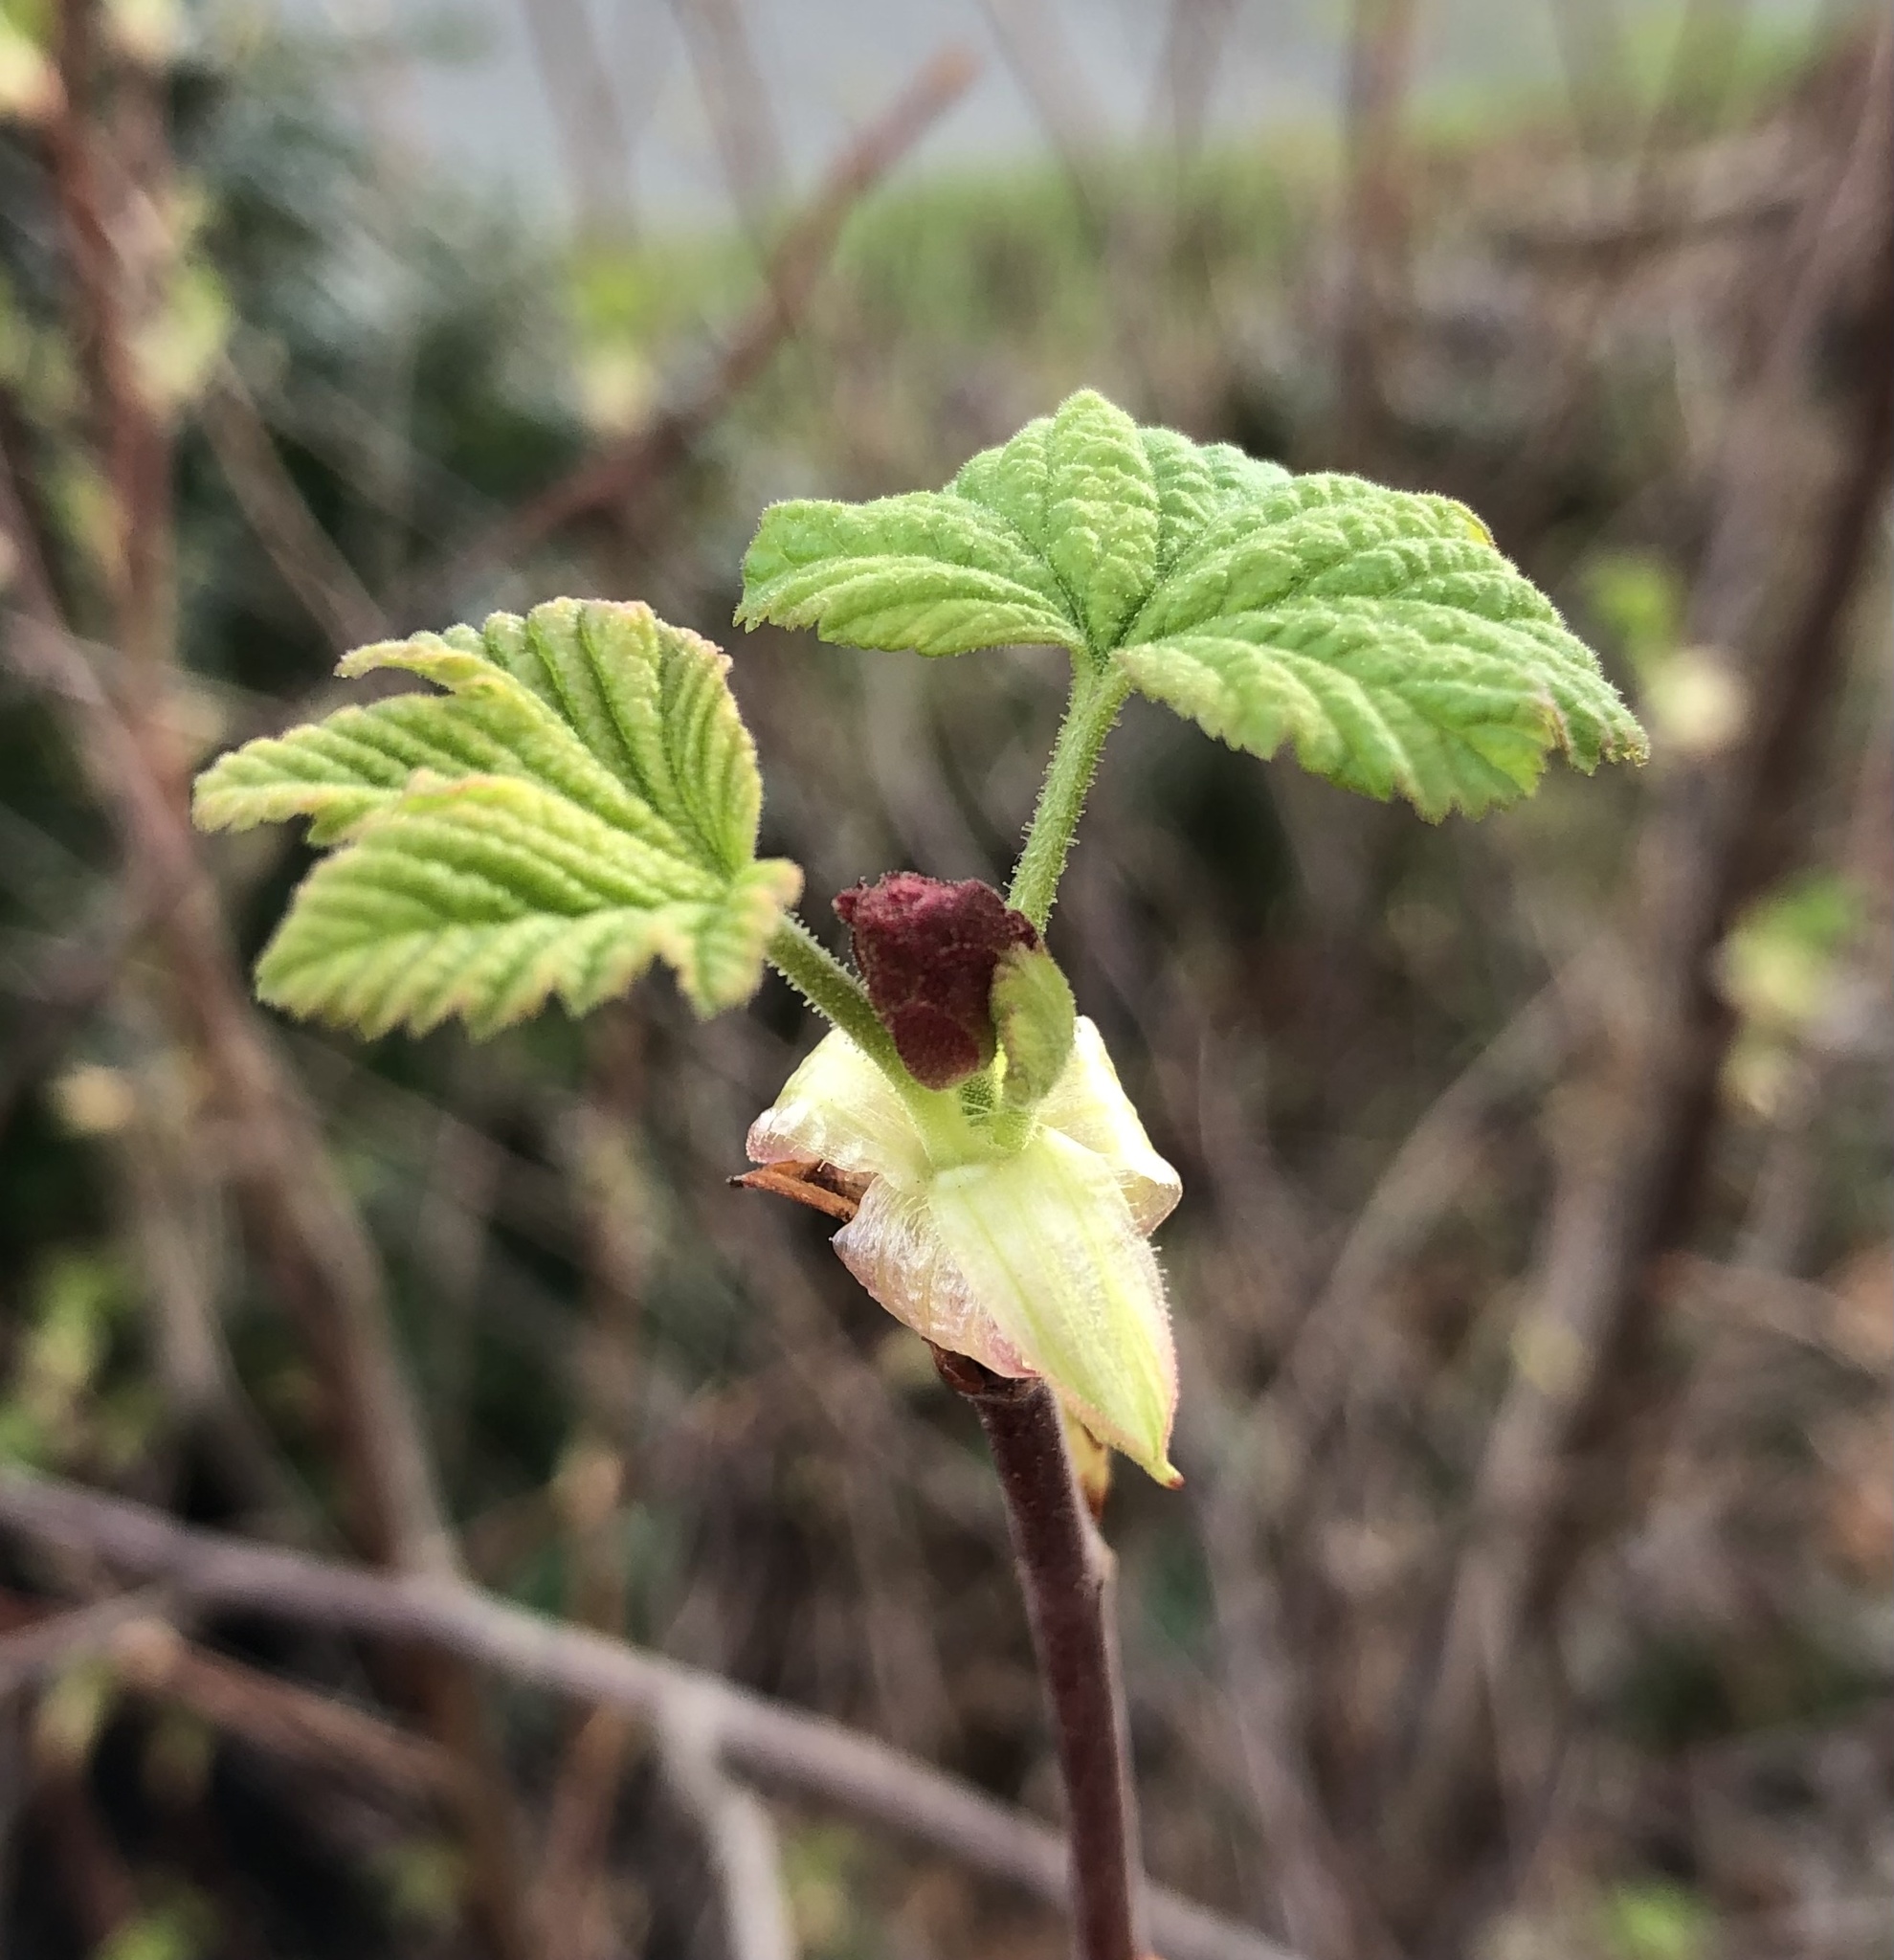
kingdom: Plantae
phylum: Tracheophyta
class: Magnoliopsida
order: Saxifragales
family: Grossulariaceae
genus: Ribes
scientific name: Ribes sanguineum
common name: Flowering currant
